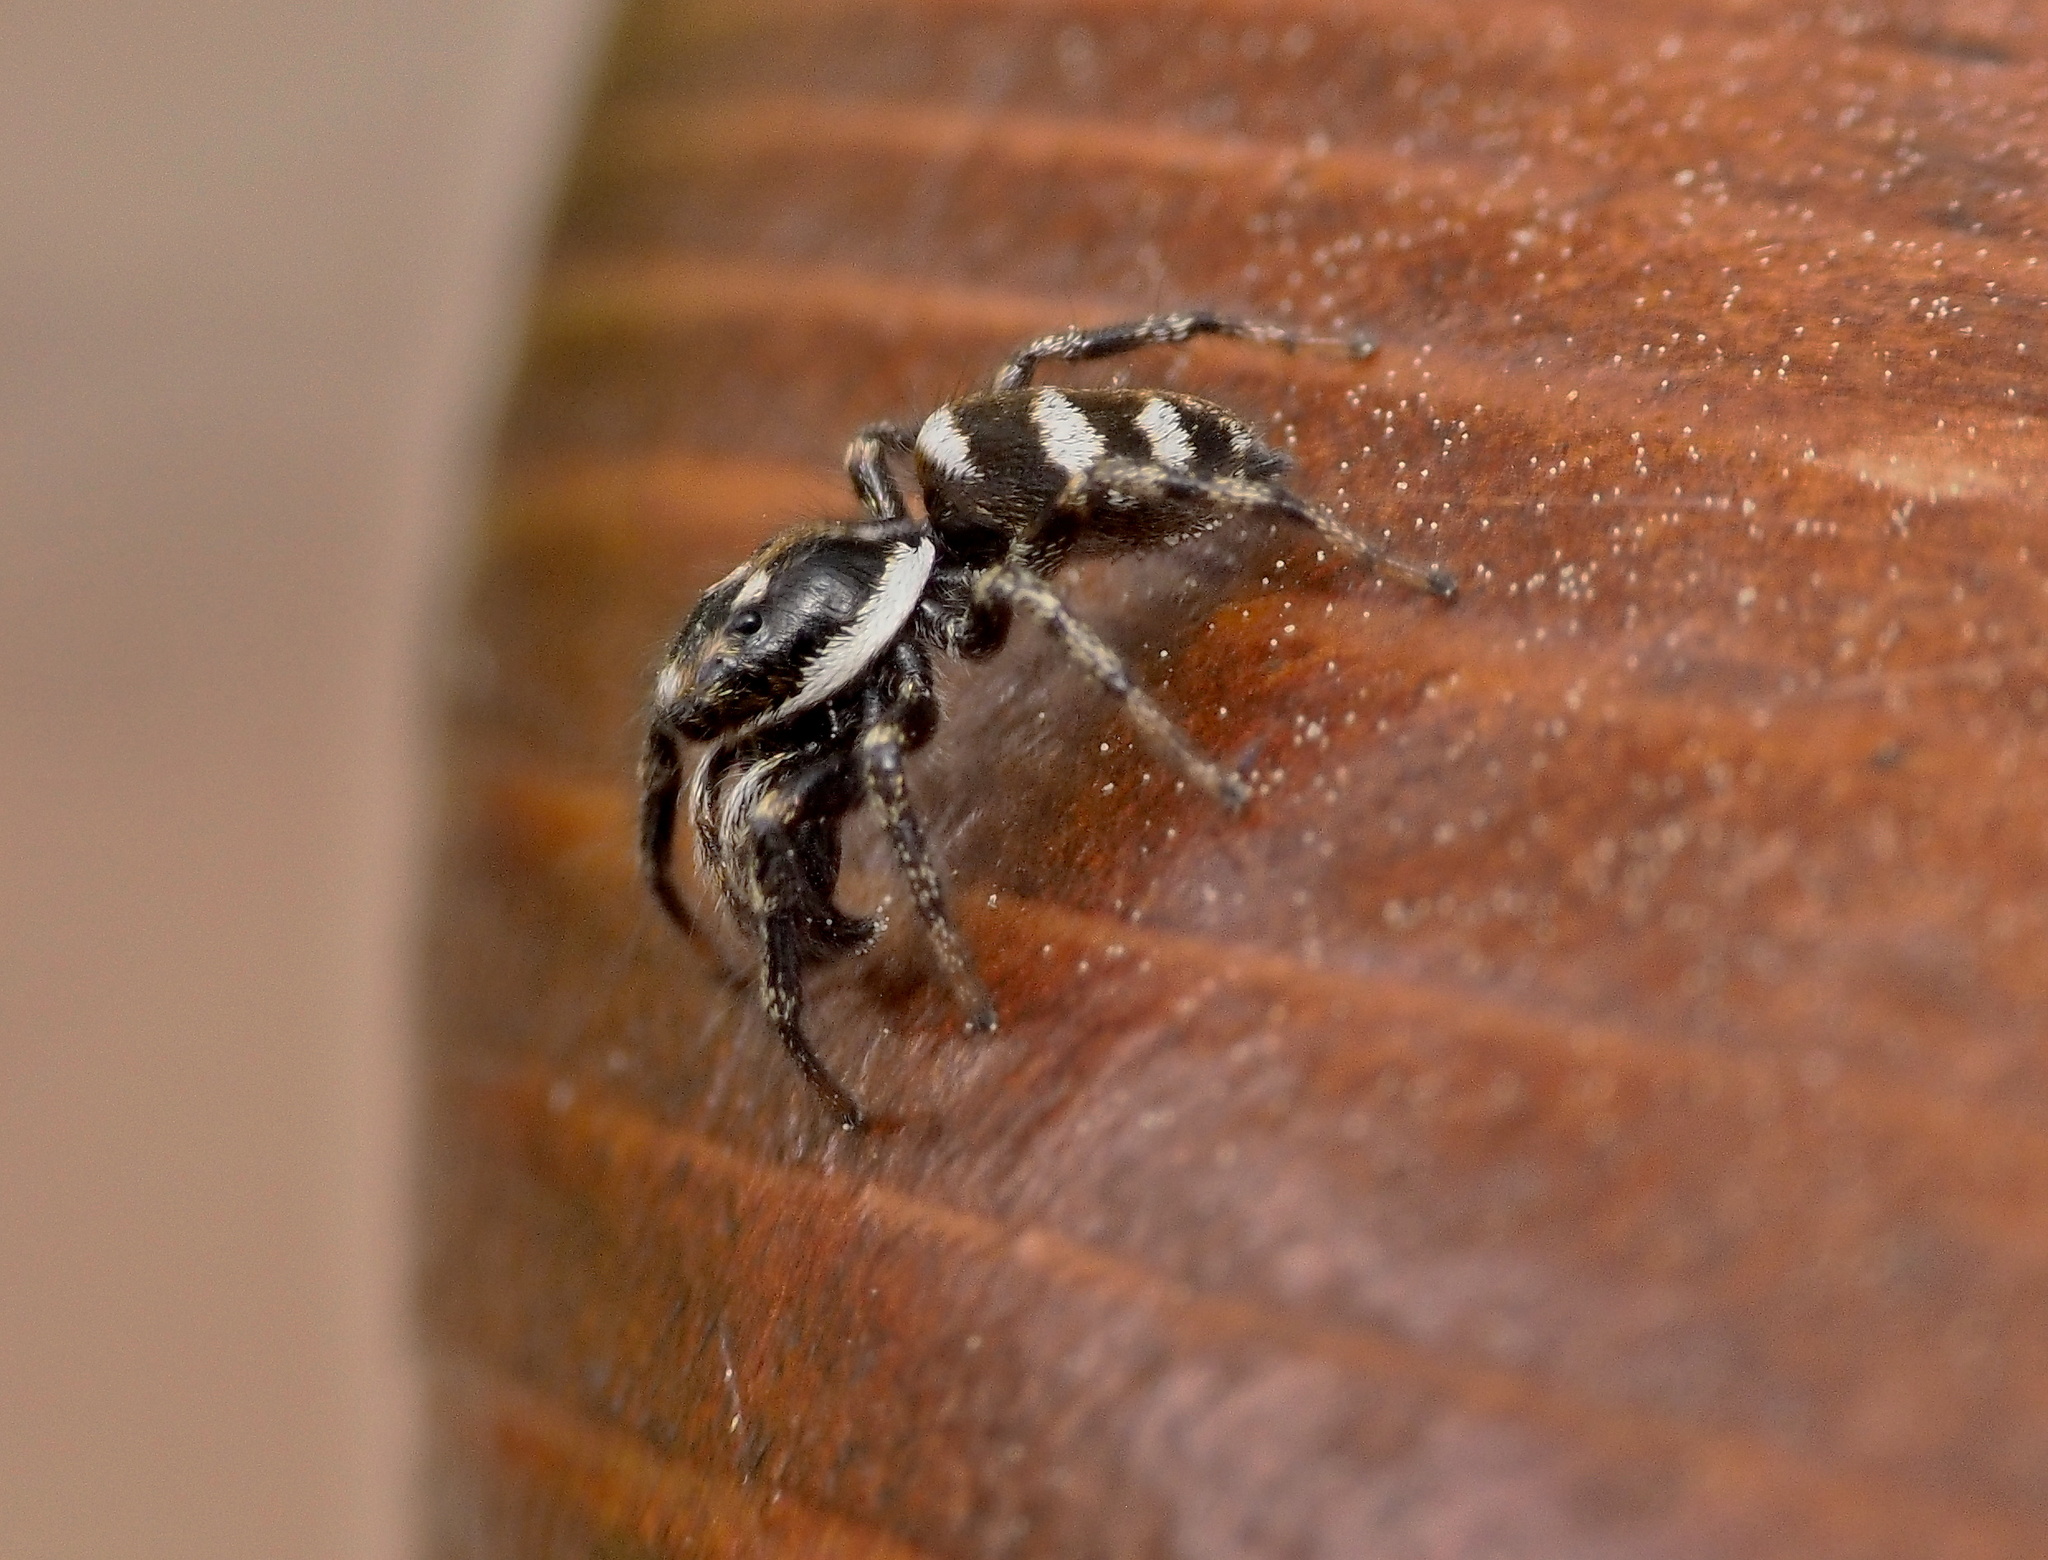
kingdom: Animalia
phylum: Arthropoda
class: Arachnida
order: Araneae
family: Salticidae
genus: Salticus
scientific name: Salticus scenicus
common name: Zebra jumper
